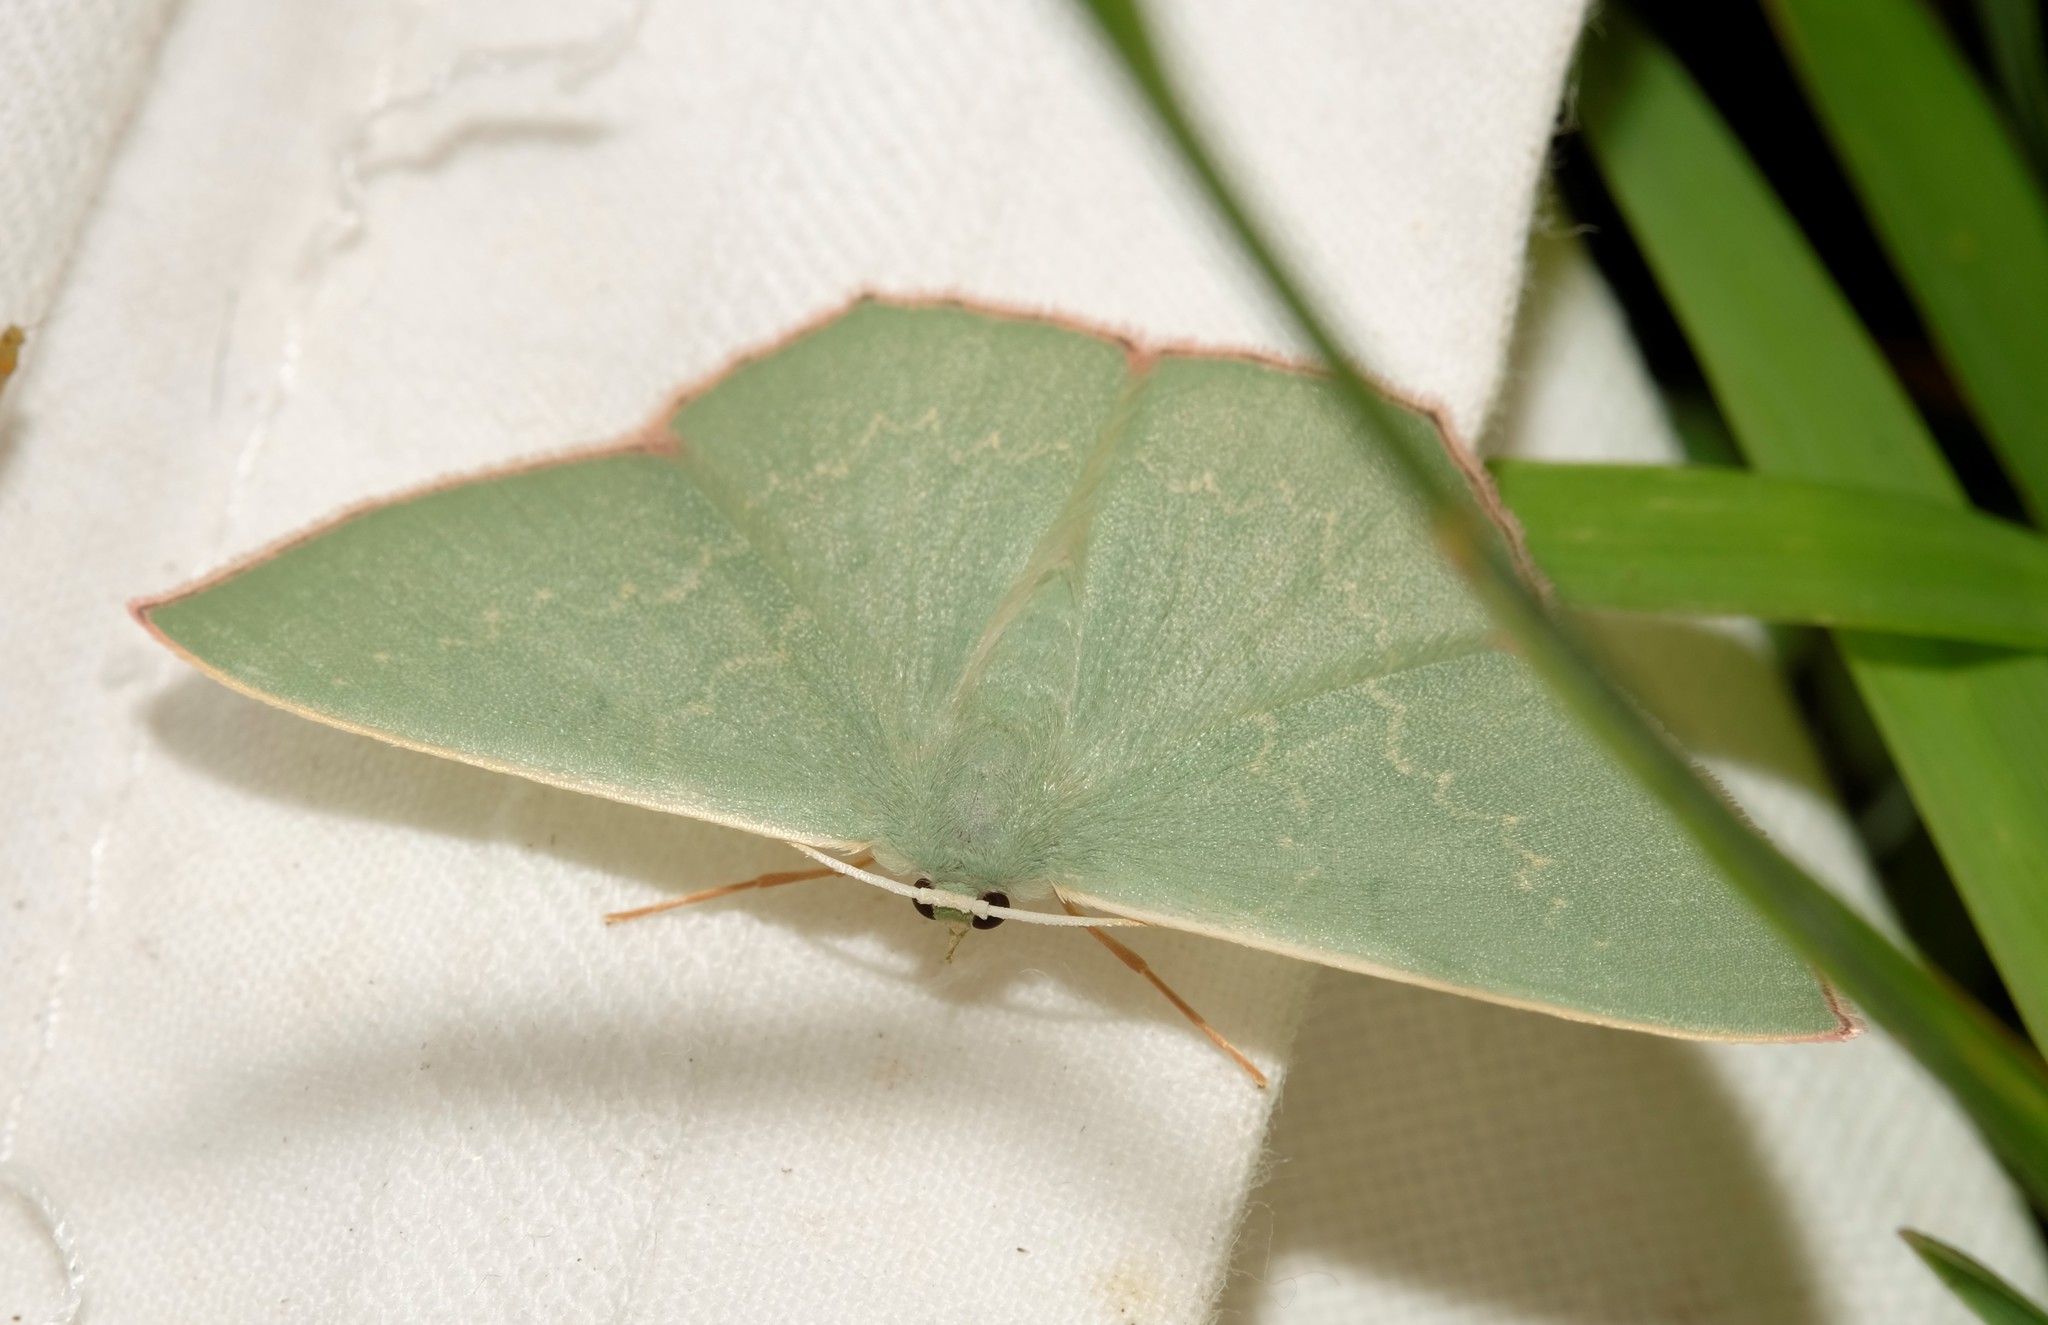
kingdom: Animalia
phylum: Arthropoda
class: Insecta
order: Lepidoptera
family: Geometridae
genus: Prasinocyma
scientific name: Prasinocyma semicrocea
